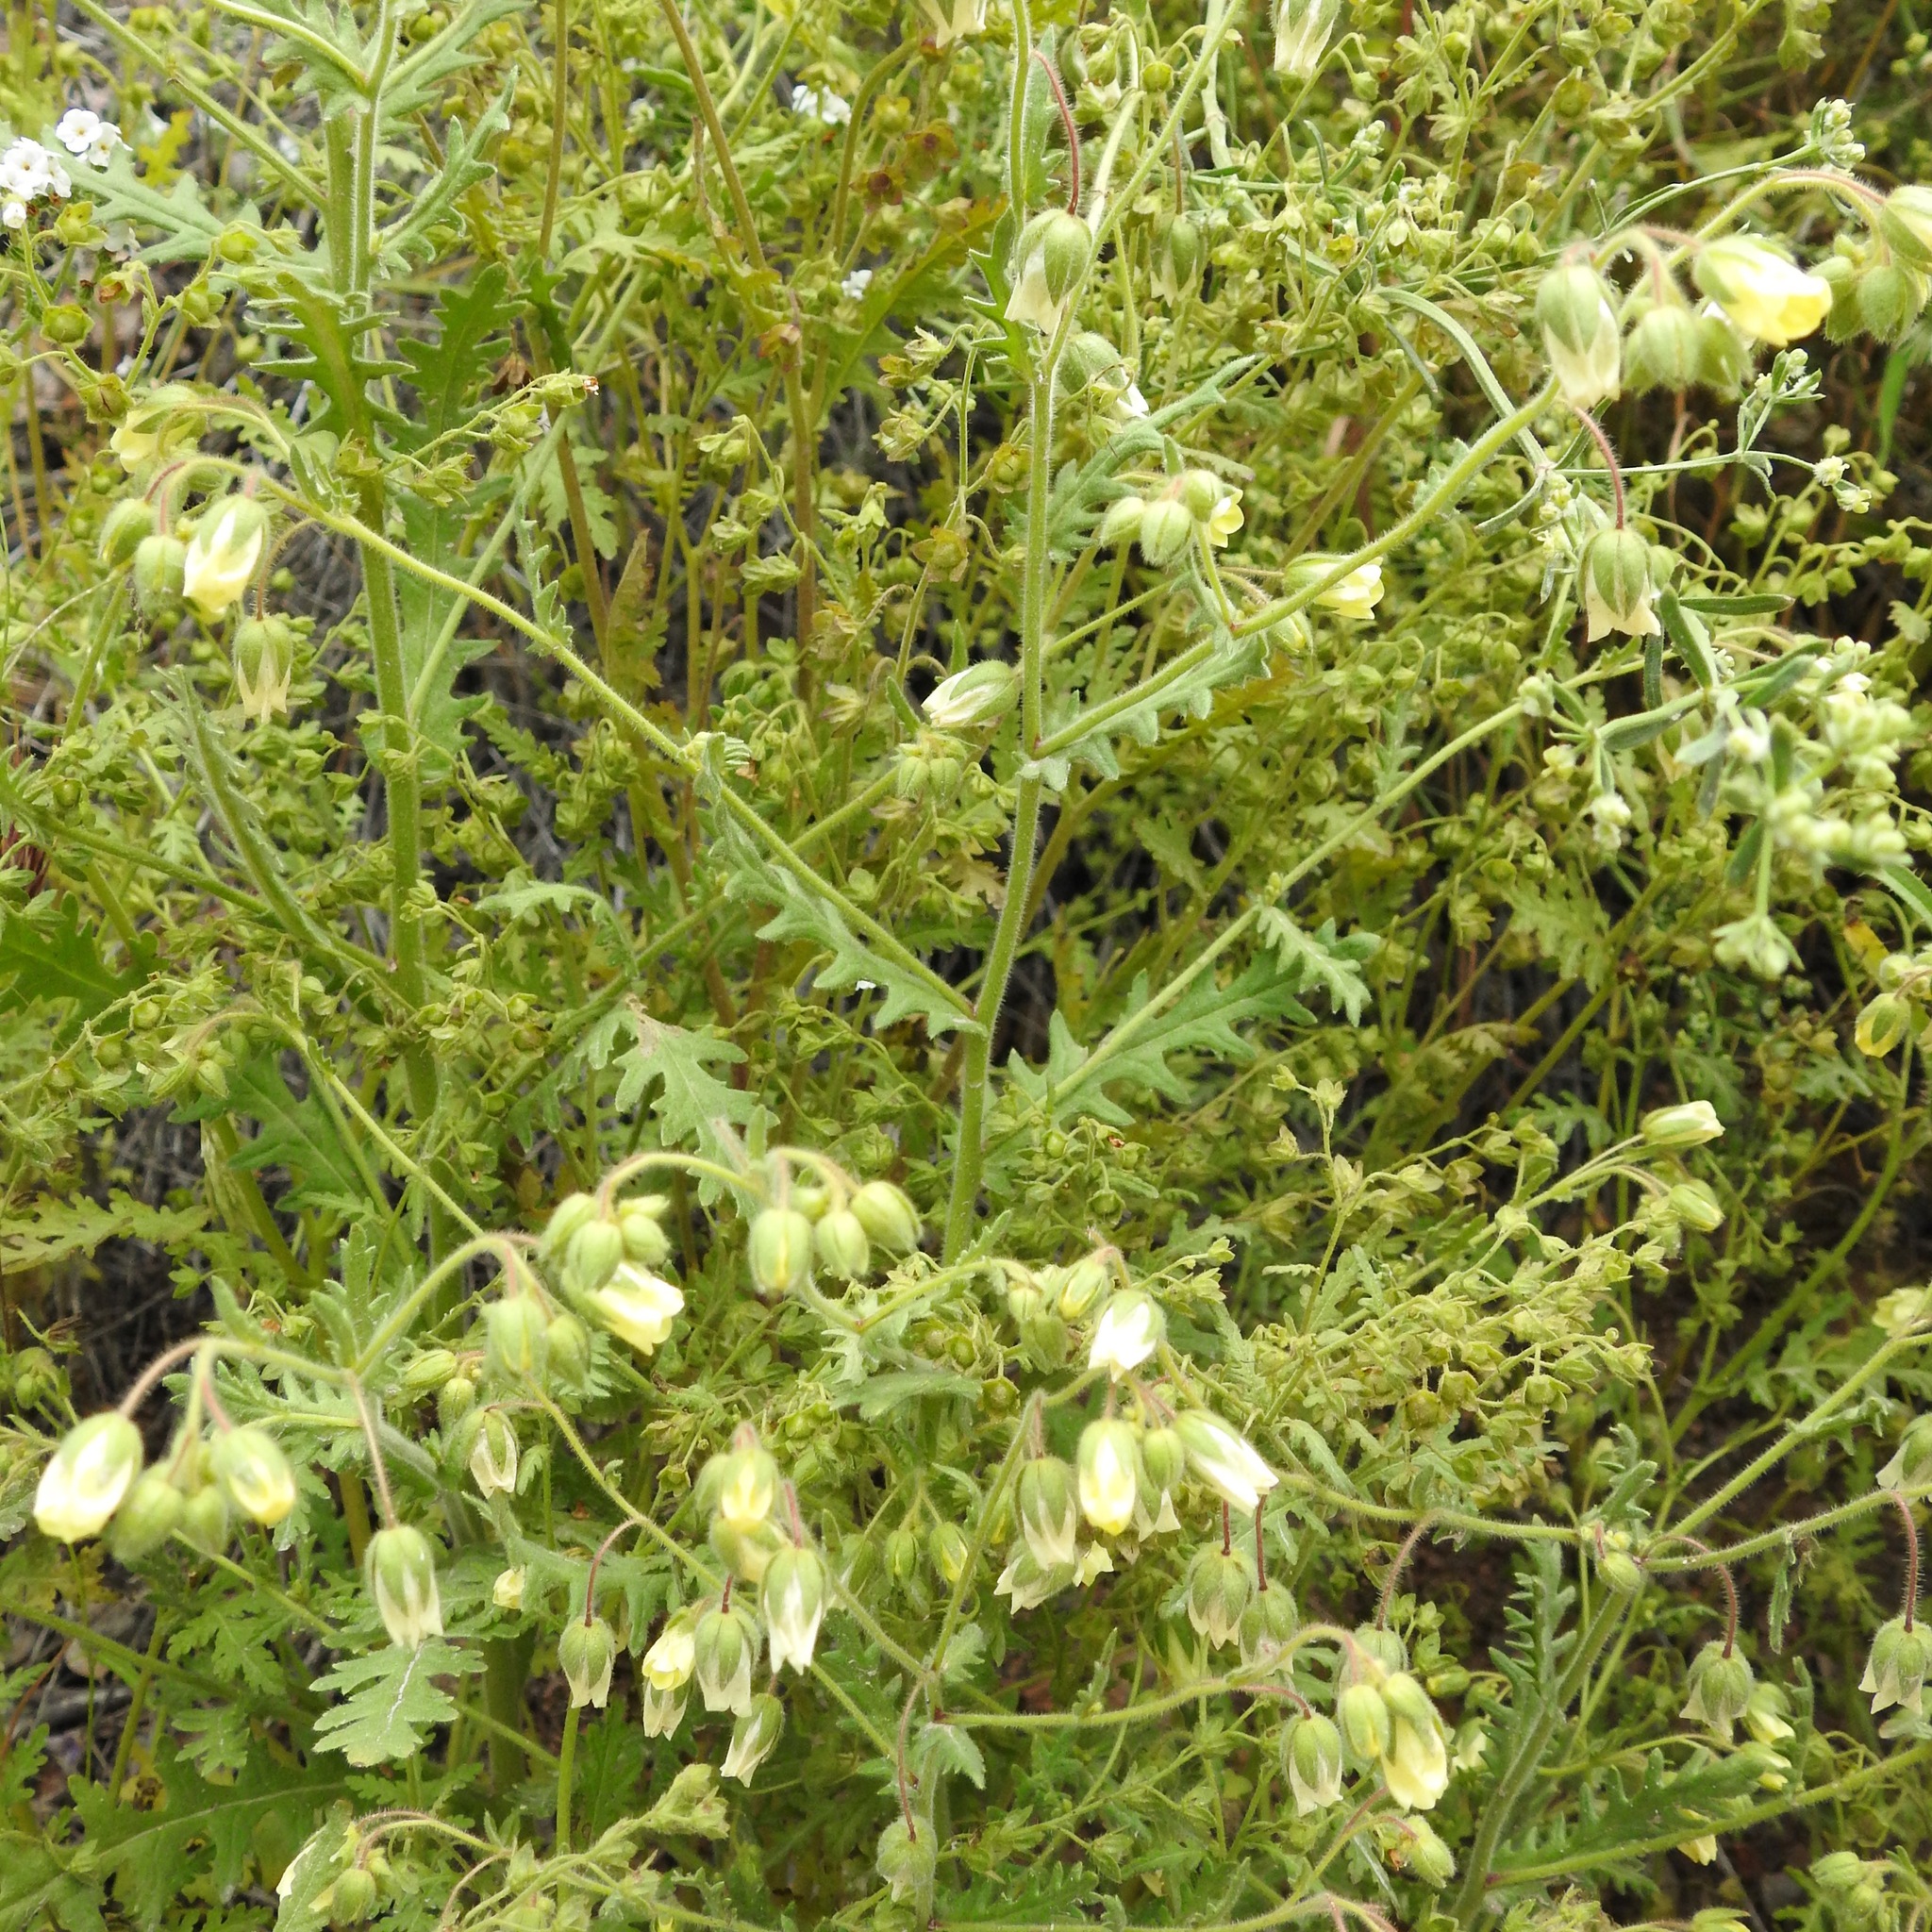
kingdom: Plantae
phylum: Tracheophyta
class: Magnoliopsida
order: Boraginales
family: Hydrophyllaceae
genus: Emmenanthe
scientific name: Emmenanthe penduliflora
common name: Whispering-bells
